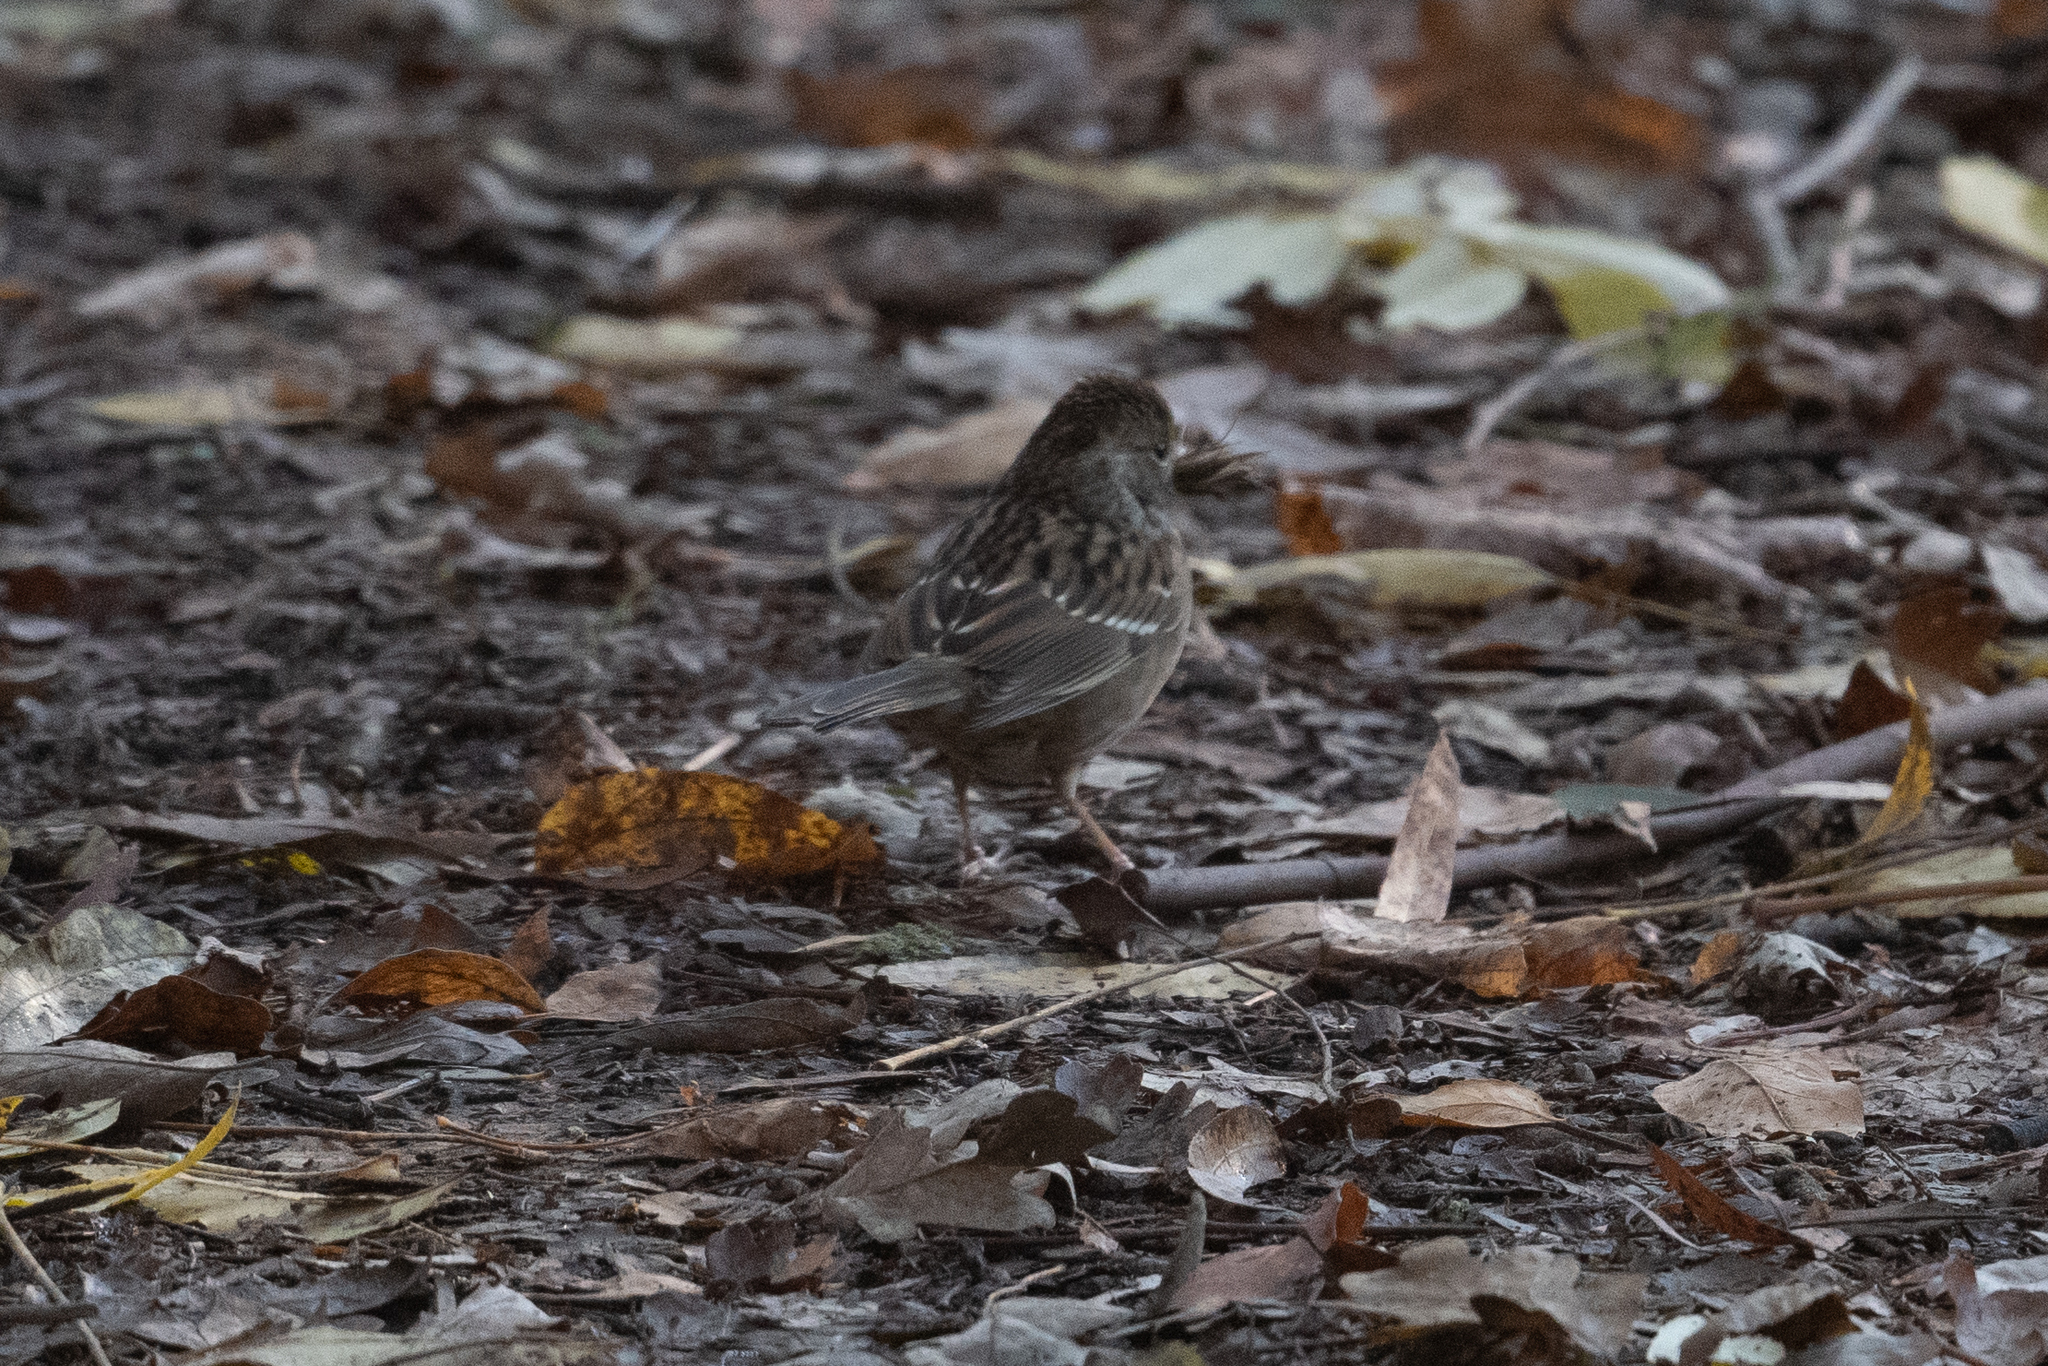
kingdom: Animalia
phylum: Chordata
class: Aves
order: Passeriformes
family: Passerellidae
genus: Zonotrichia
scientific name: Zonotrichia atricapilla
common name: Golden-crowned sparrow
